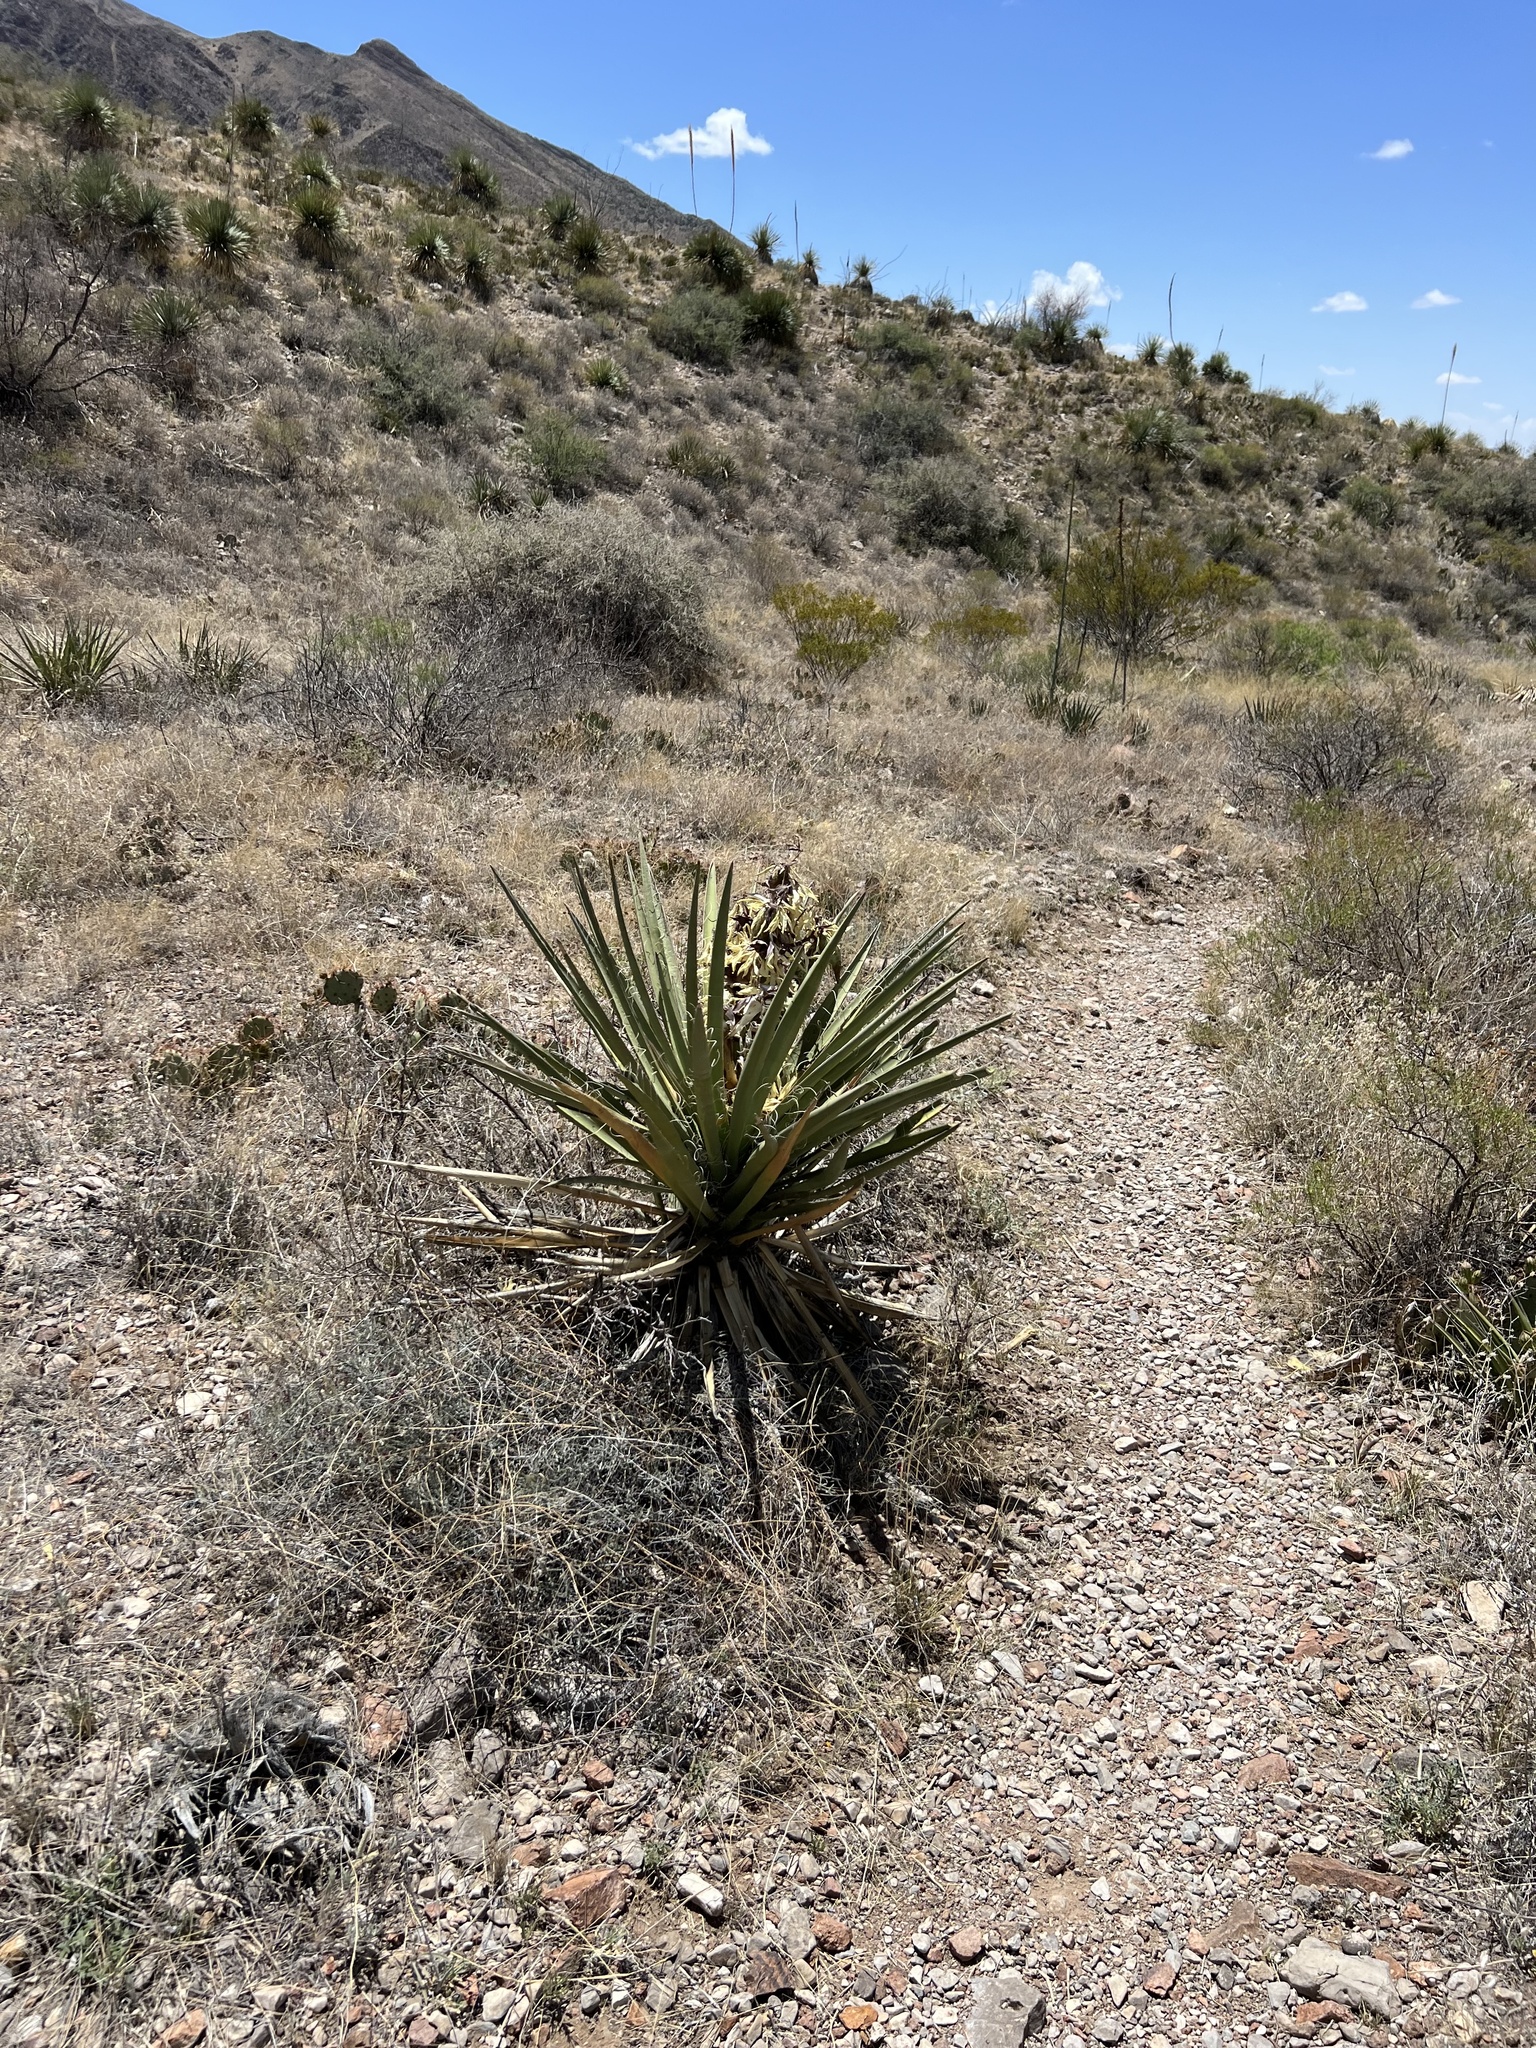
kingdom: Plantae
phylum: Tracheophyta
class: Liliopsida
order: Asparagales
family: Asparagaceae
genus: Yucca
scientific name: Yucca baccata
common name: Banana yucca
